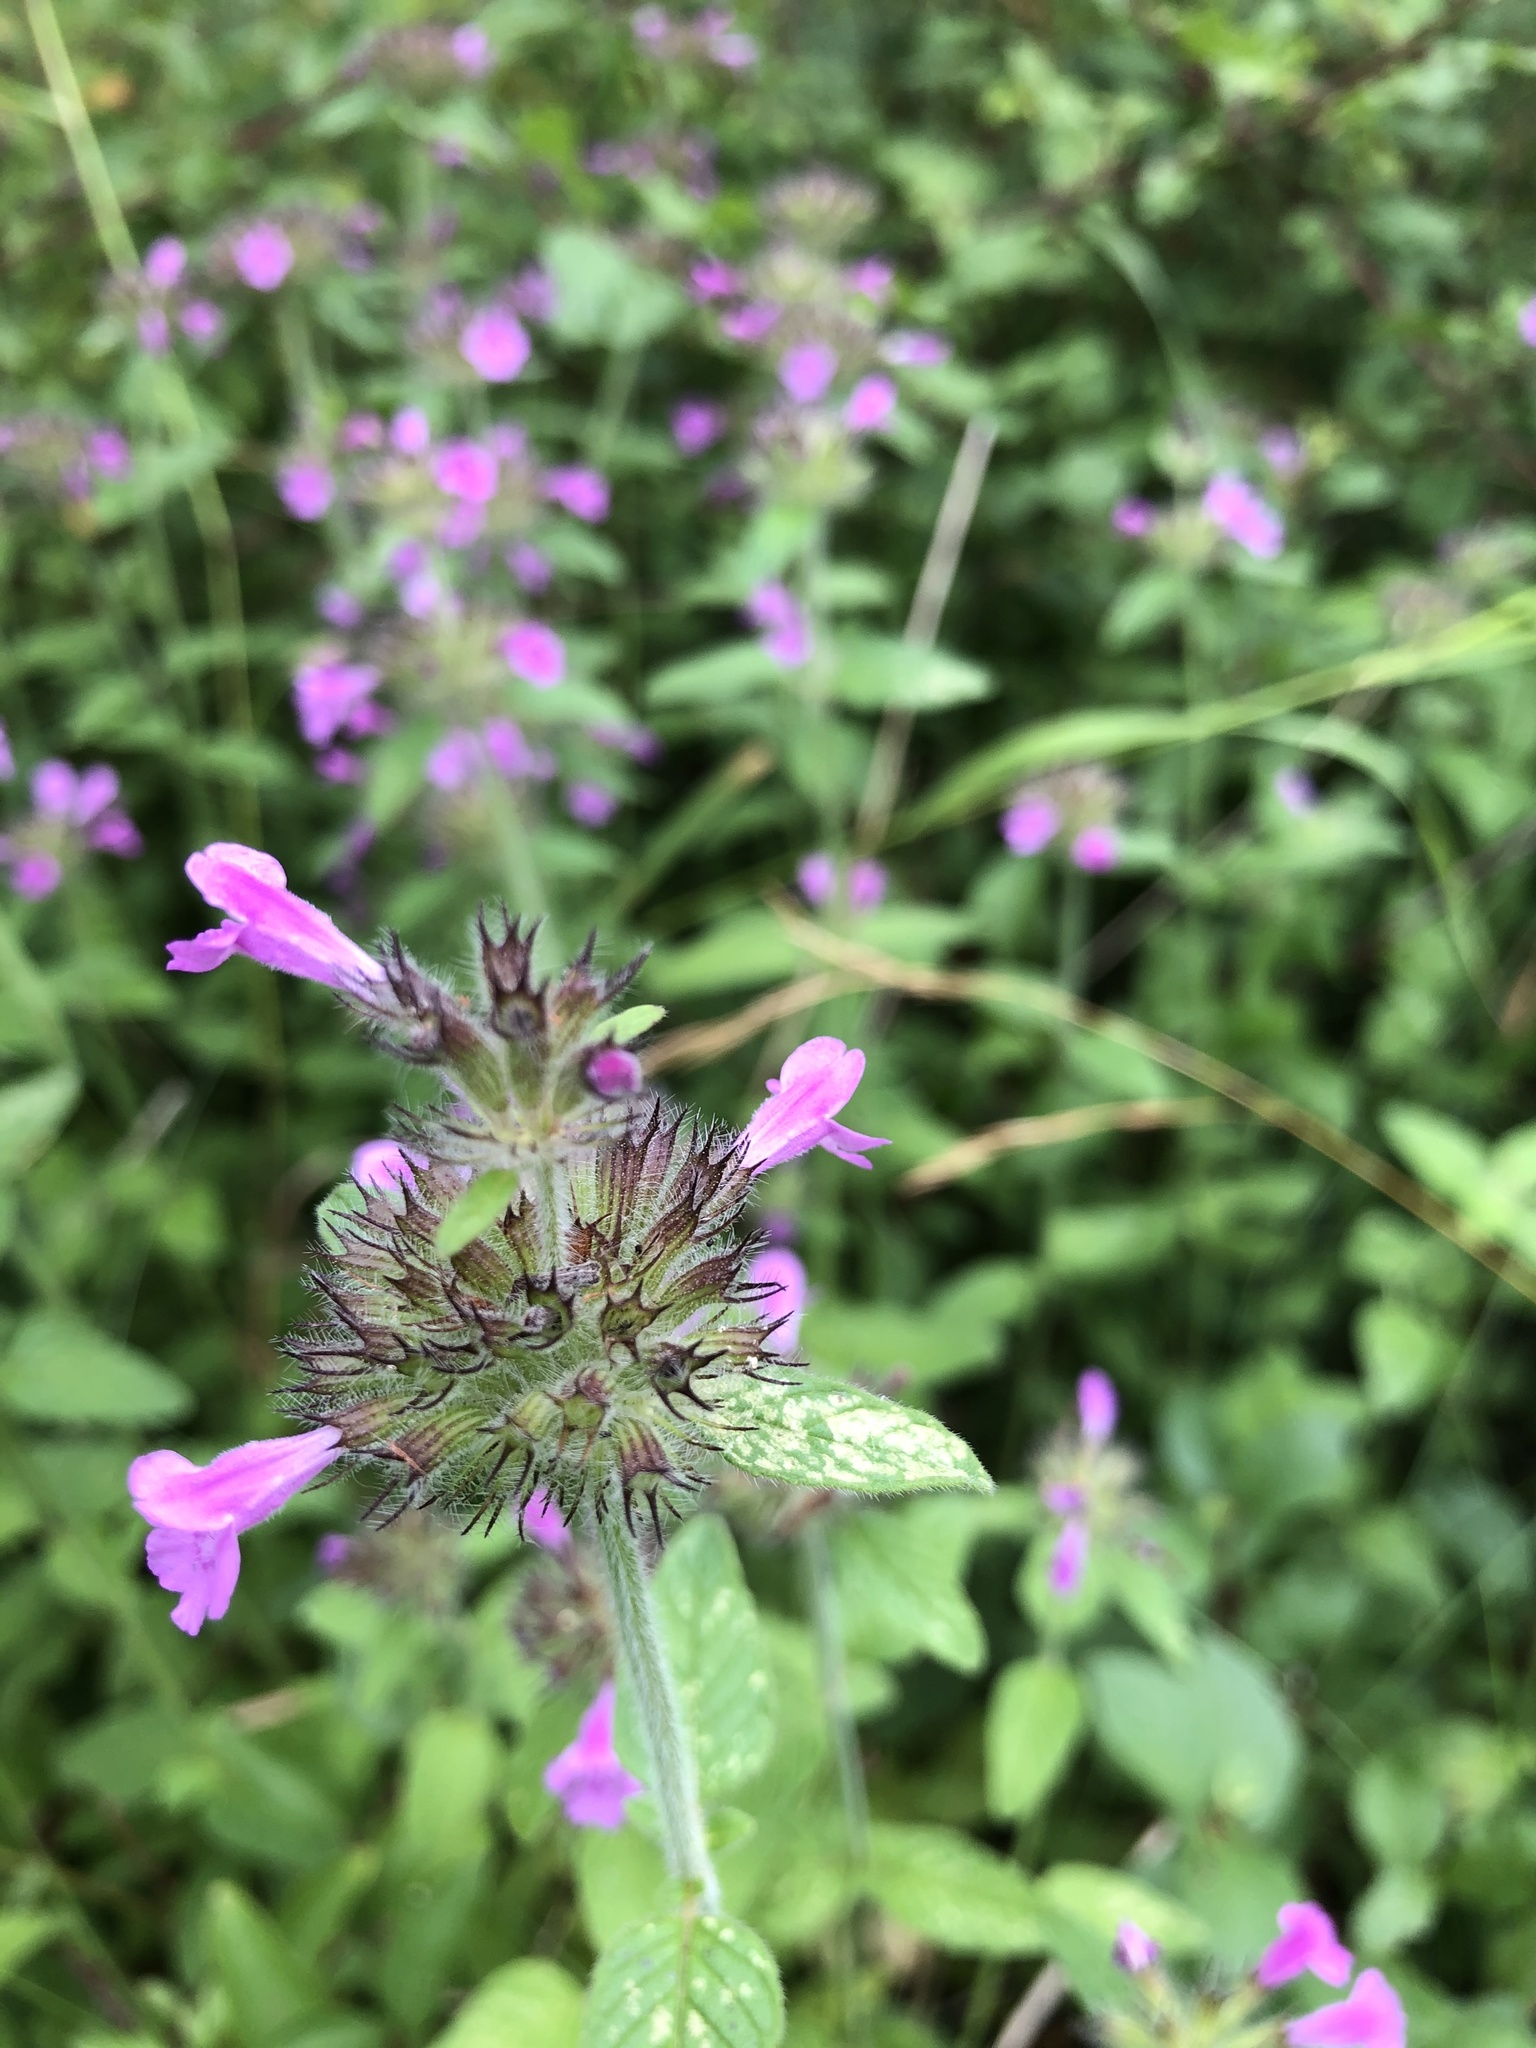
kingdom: Plantae
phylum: Tracheophyta
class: Magnoliopsida
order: Lamiales
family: Lamiaceae
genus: Clinopodium
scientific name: Clinopodium vulgare
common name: Wild basil
